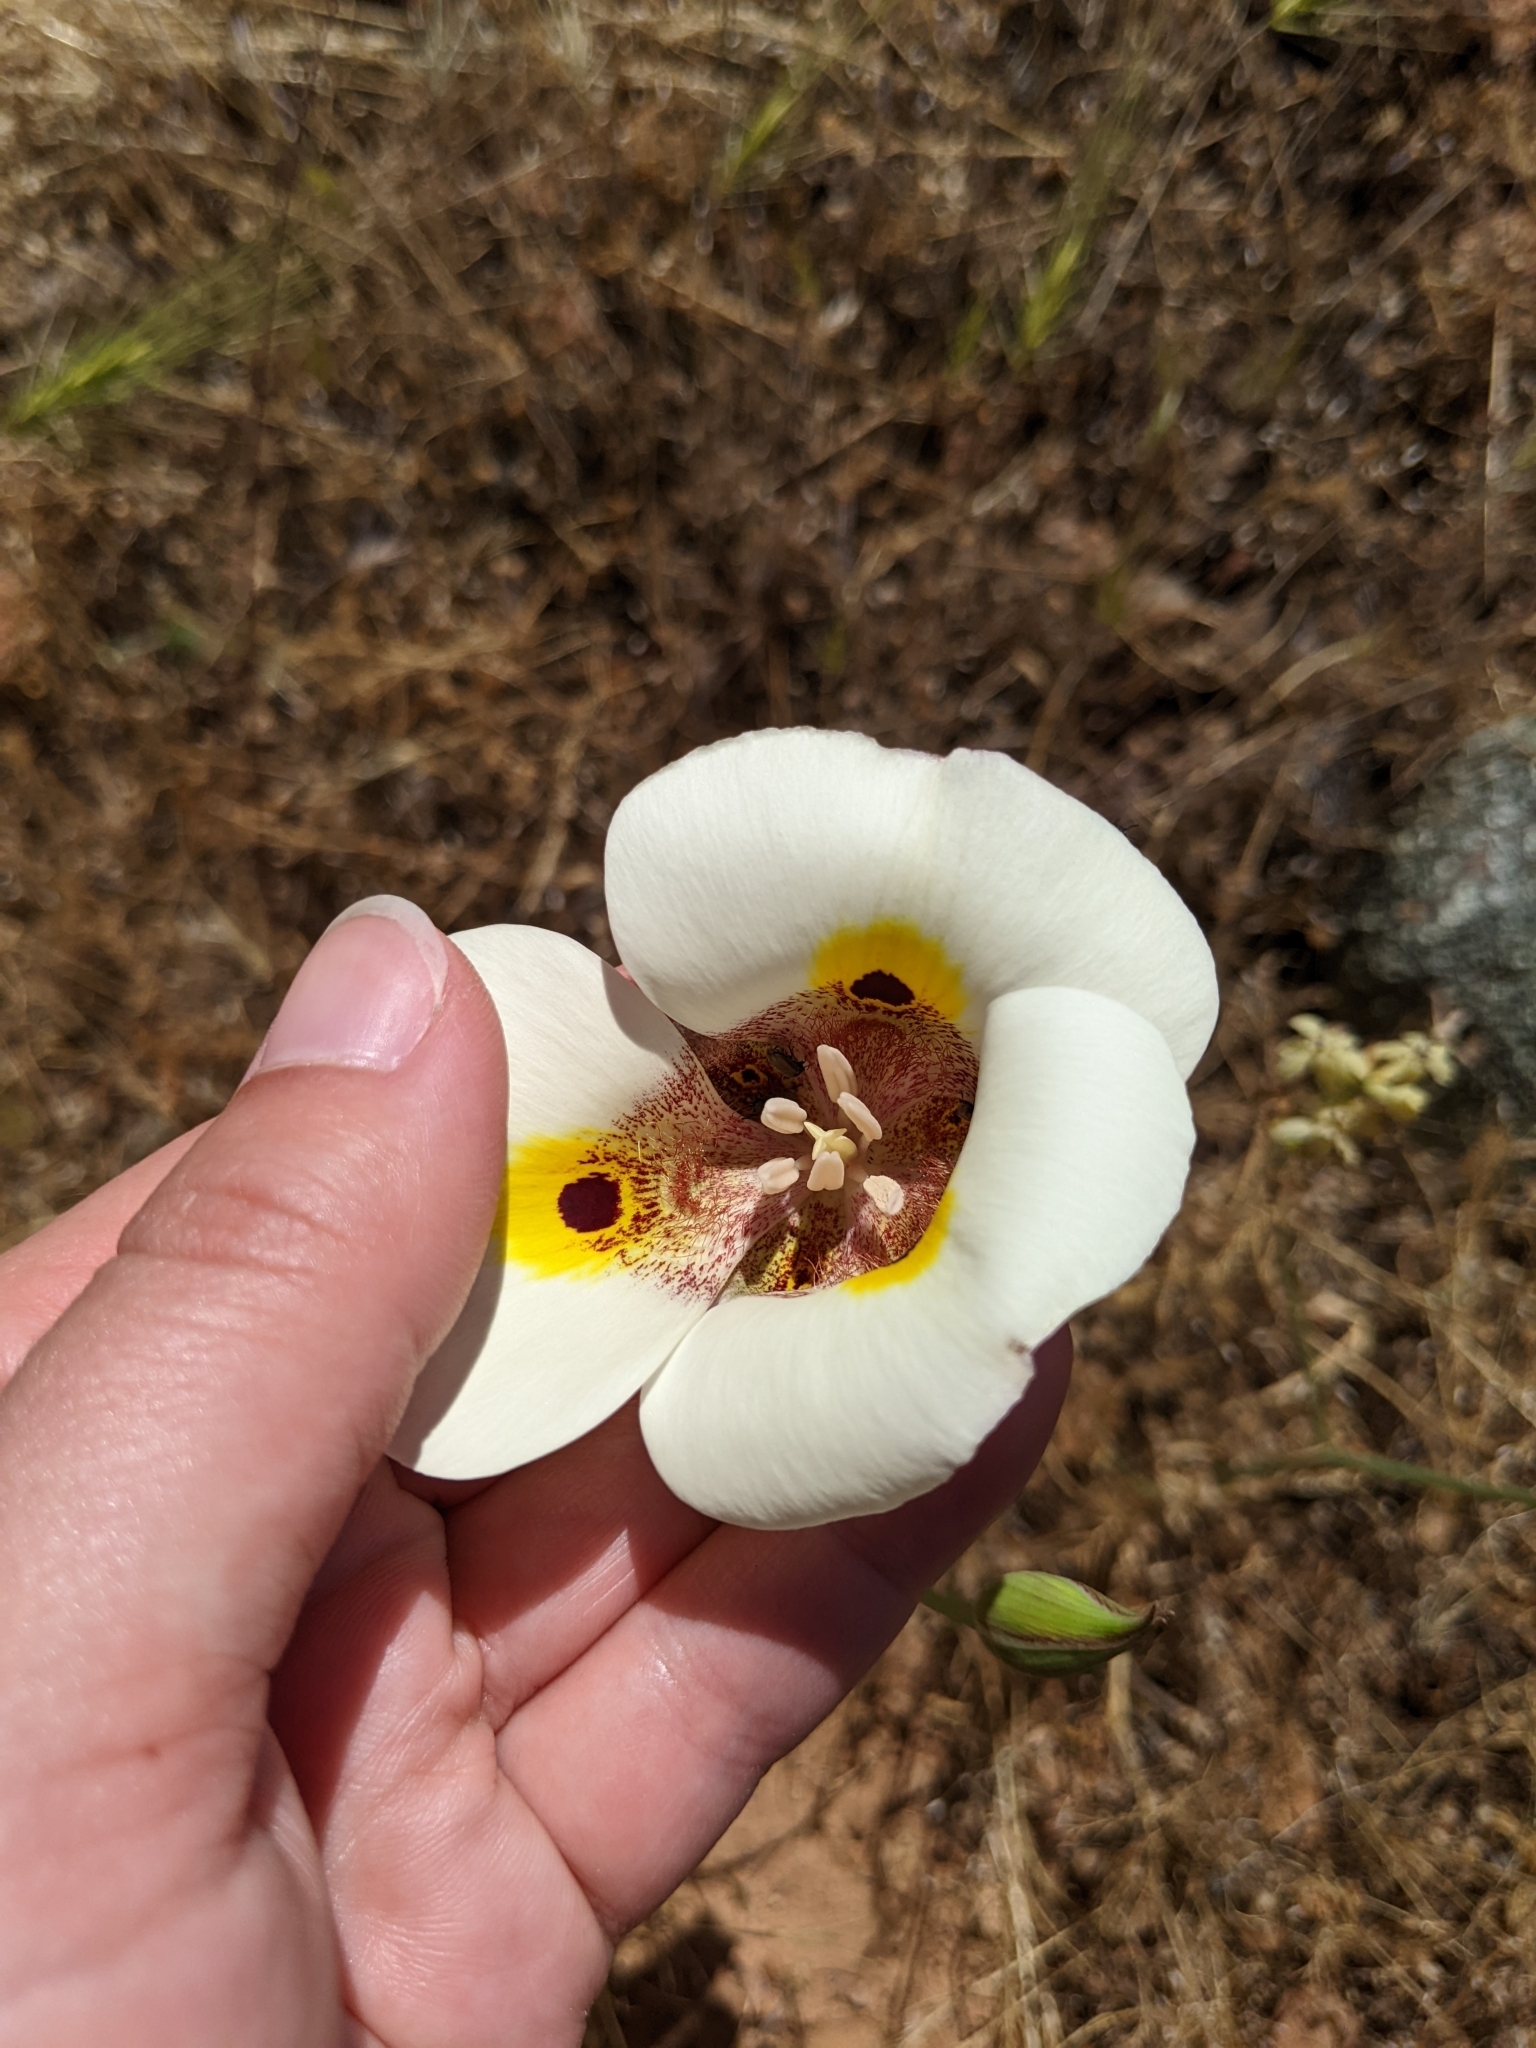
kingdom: Plantae
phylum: Tracheophyta
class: Liliopsida
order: Liliales
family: Liliaceae
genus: Calochortus
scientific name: Calochortus superbus
